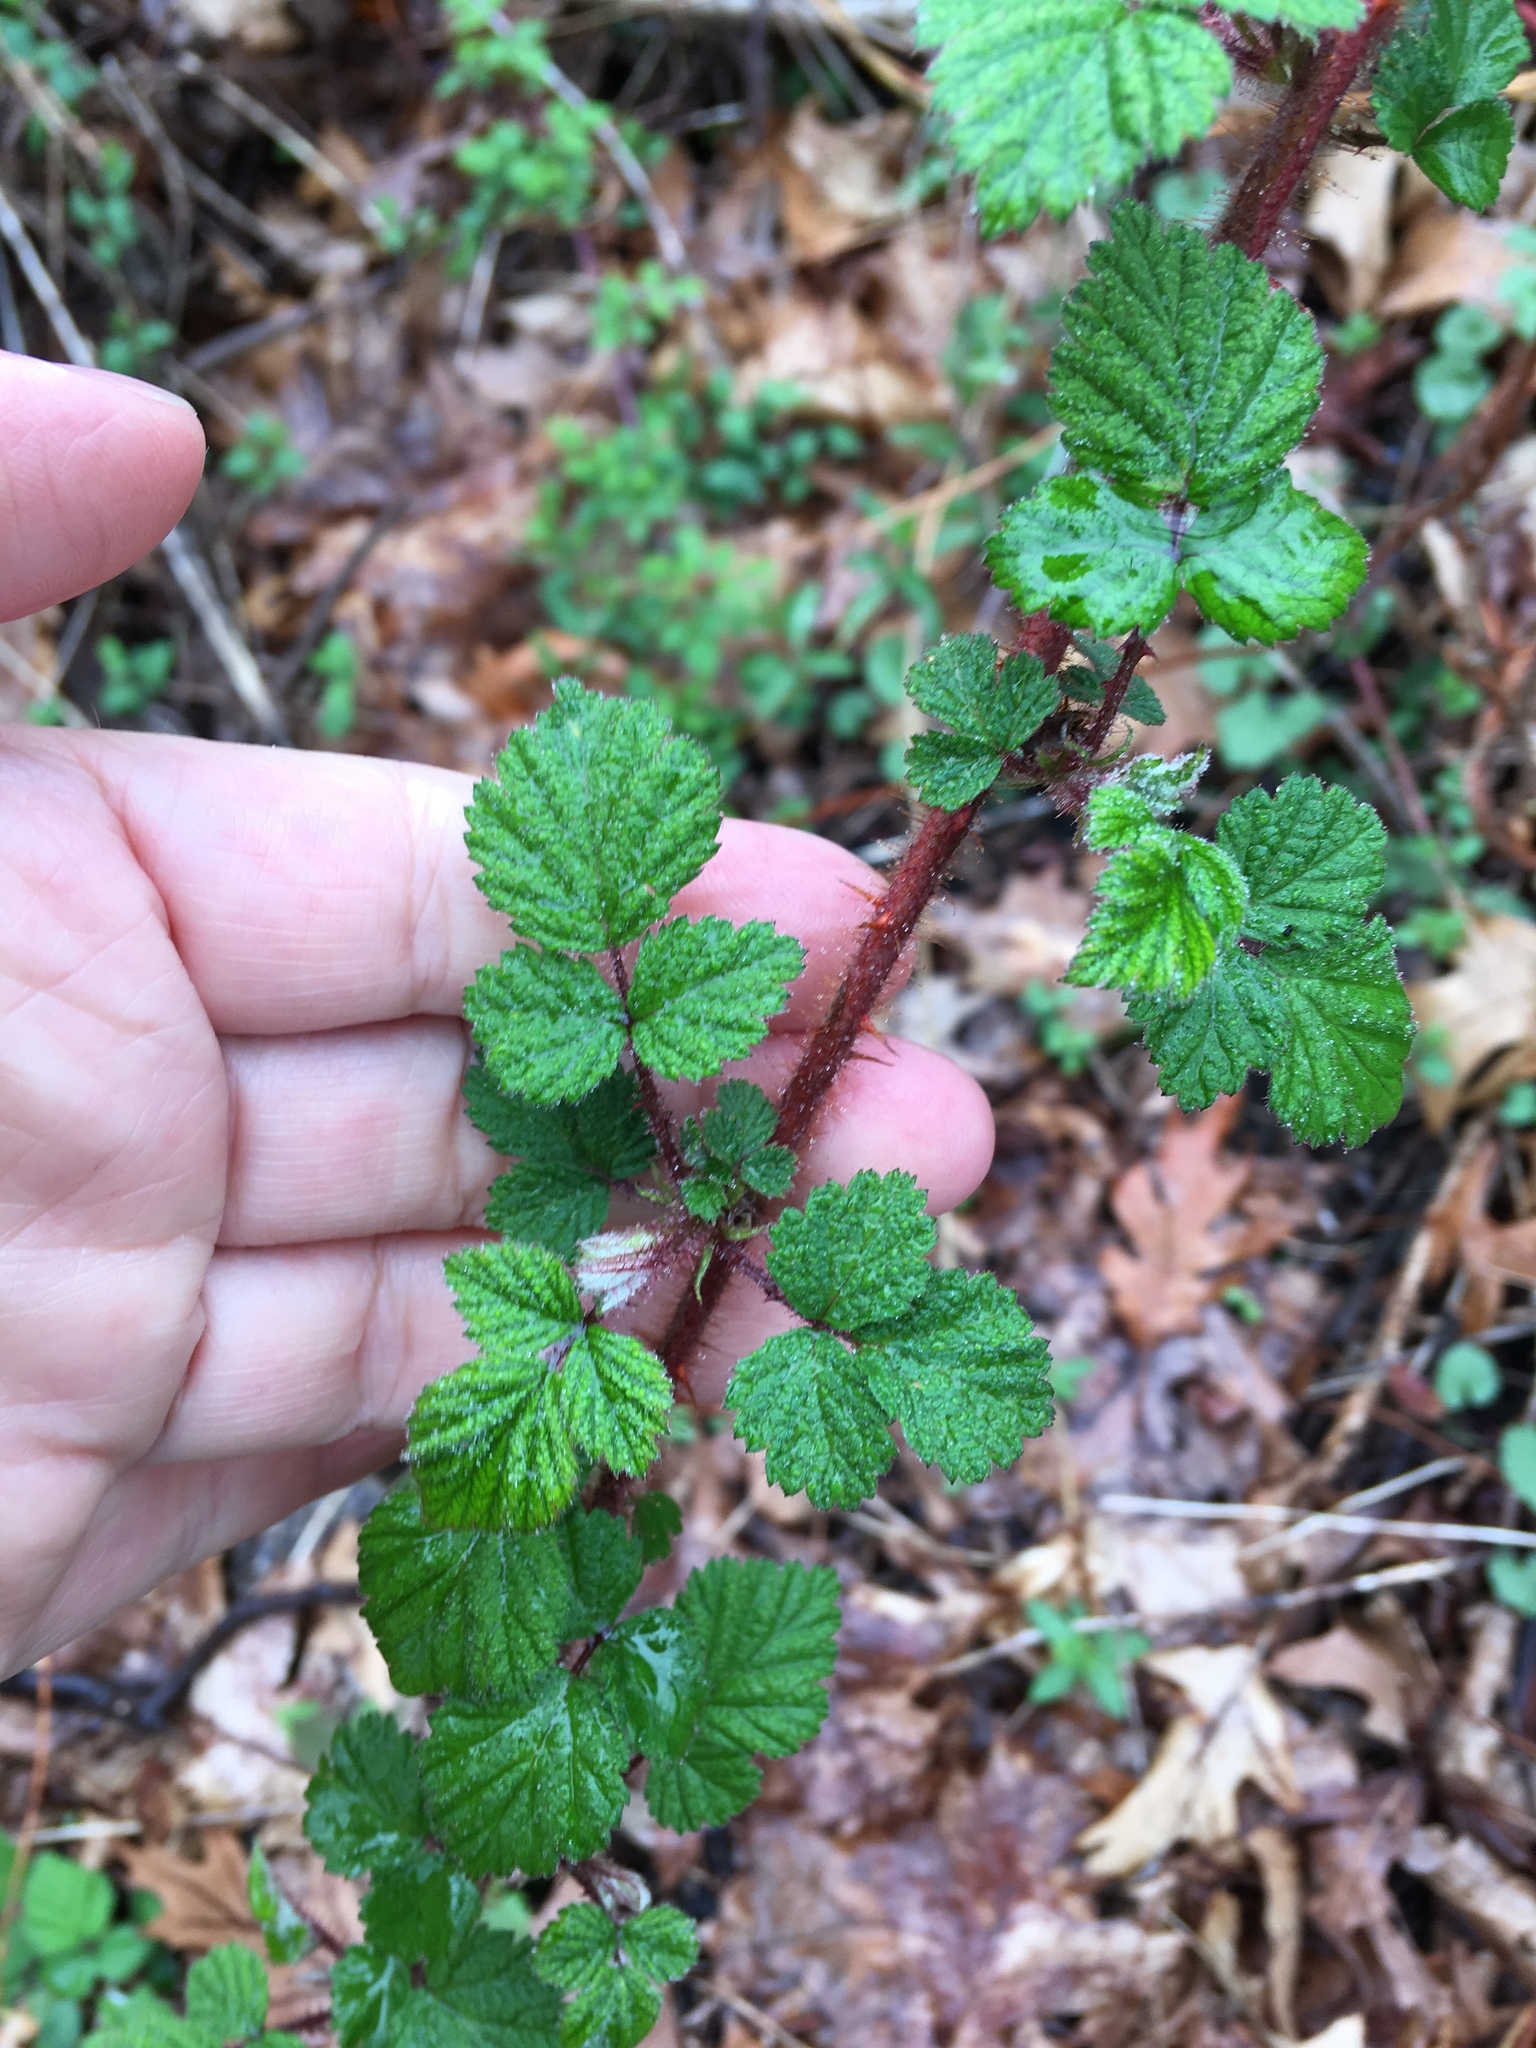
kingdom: Plantae
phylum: Tracheophyta
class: Magnoliopsida
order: Rosales
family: Rosaceae
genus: Rubus
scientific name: Rubus phoenicolasius
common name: Japanese wineberry
